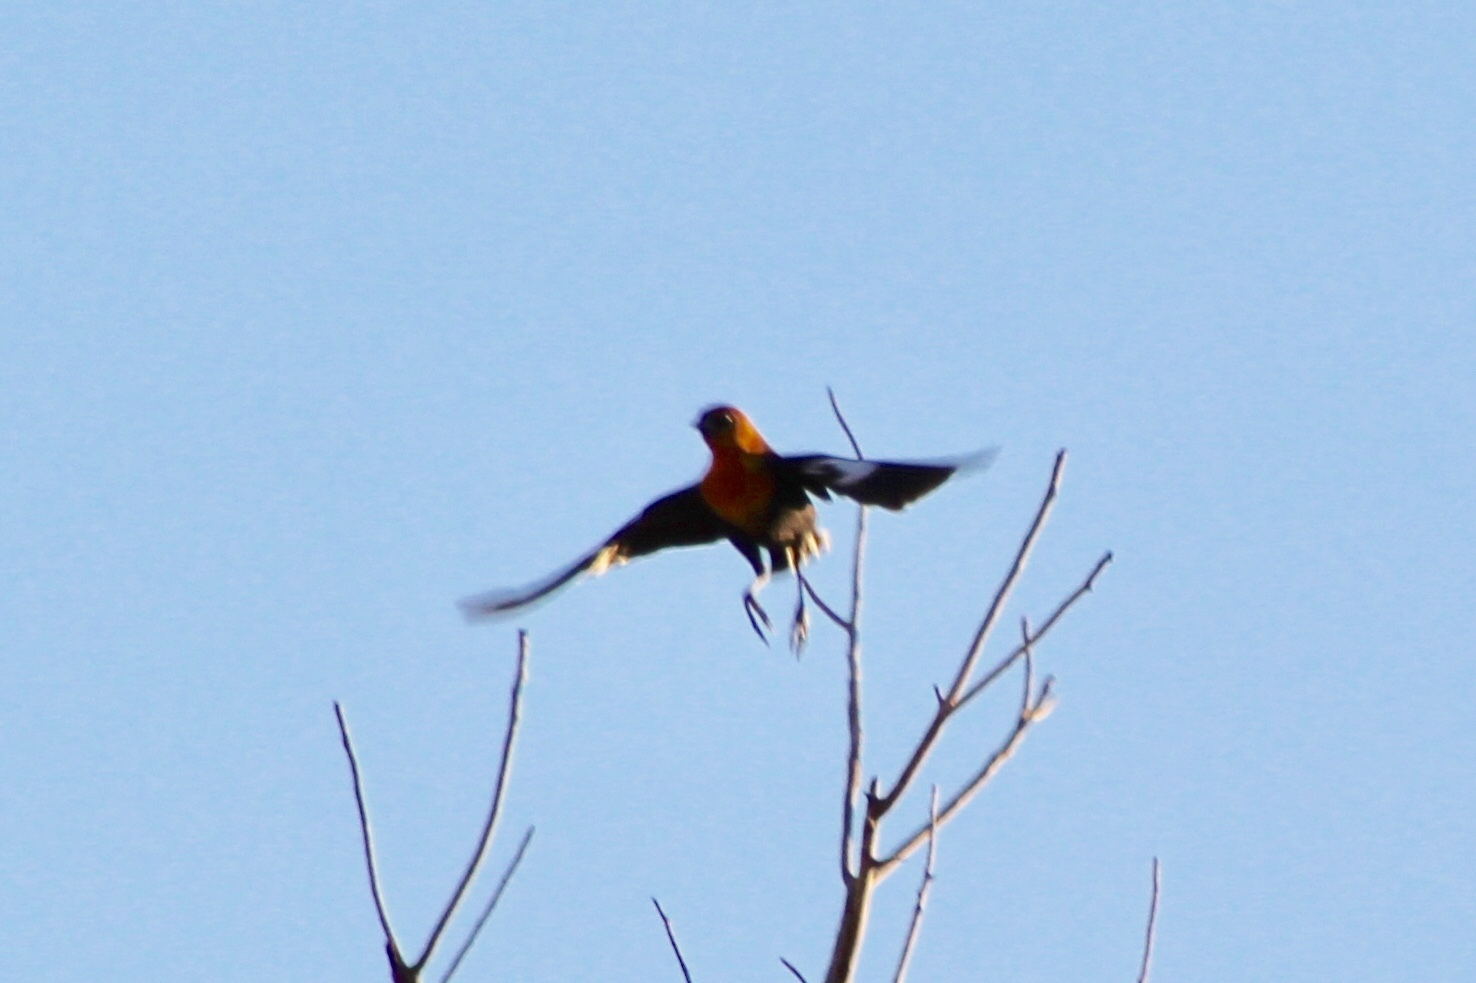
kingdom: Animalia
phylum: Chordata
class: Aves
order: Passeriformes
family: Icteridae
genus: Xanthocephalus
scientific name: Xanthocephalus xanthocephalus
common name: Yellow-headed blackbird
